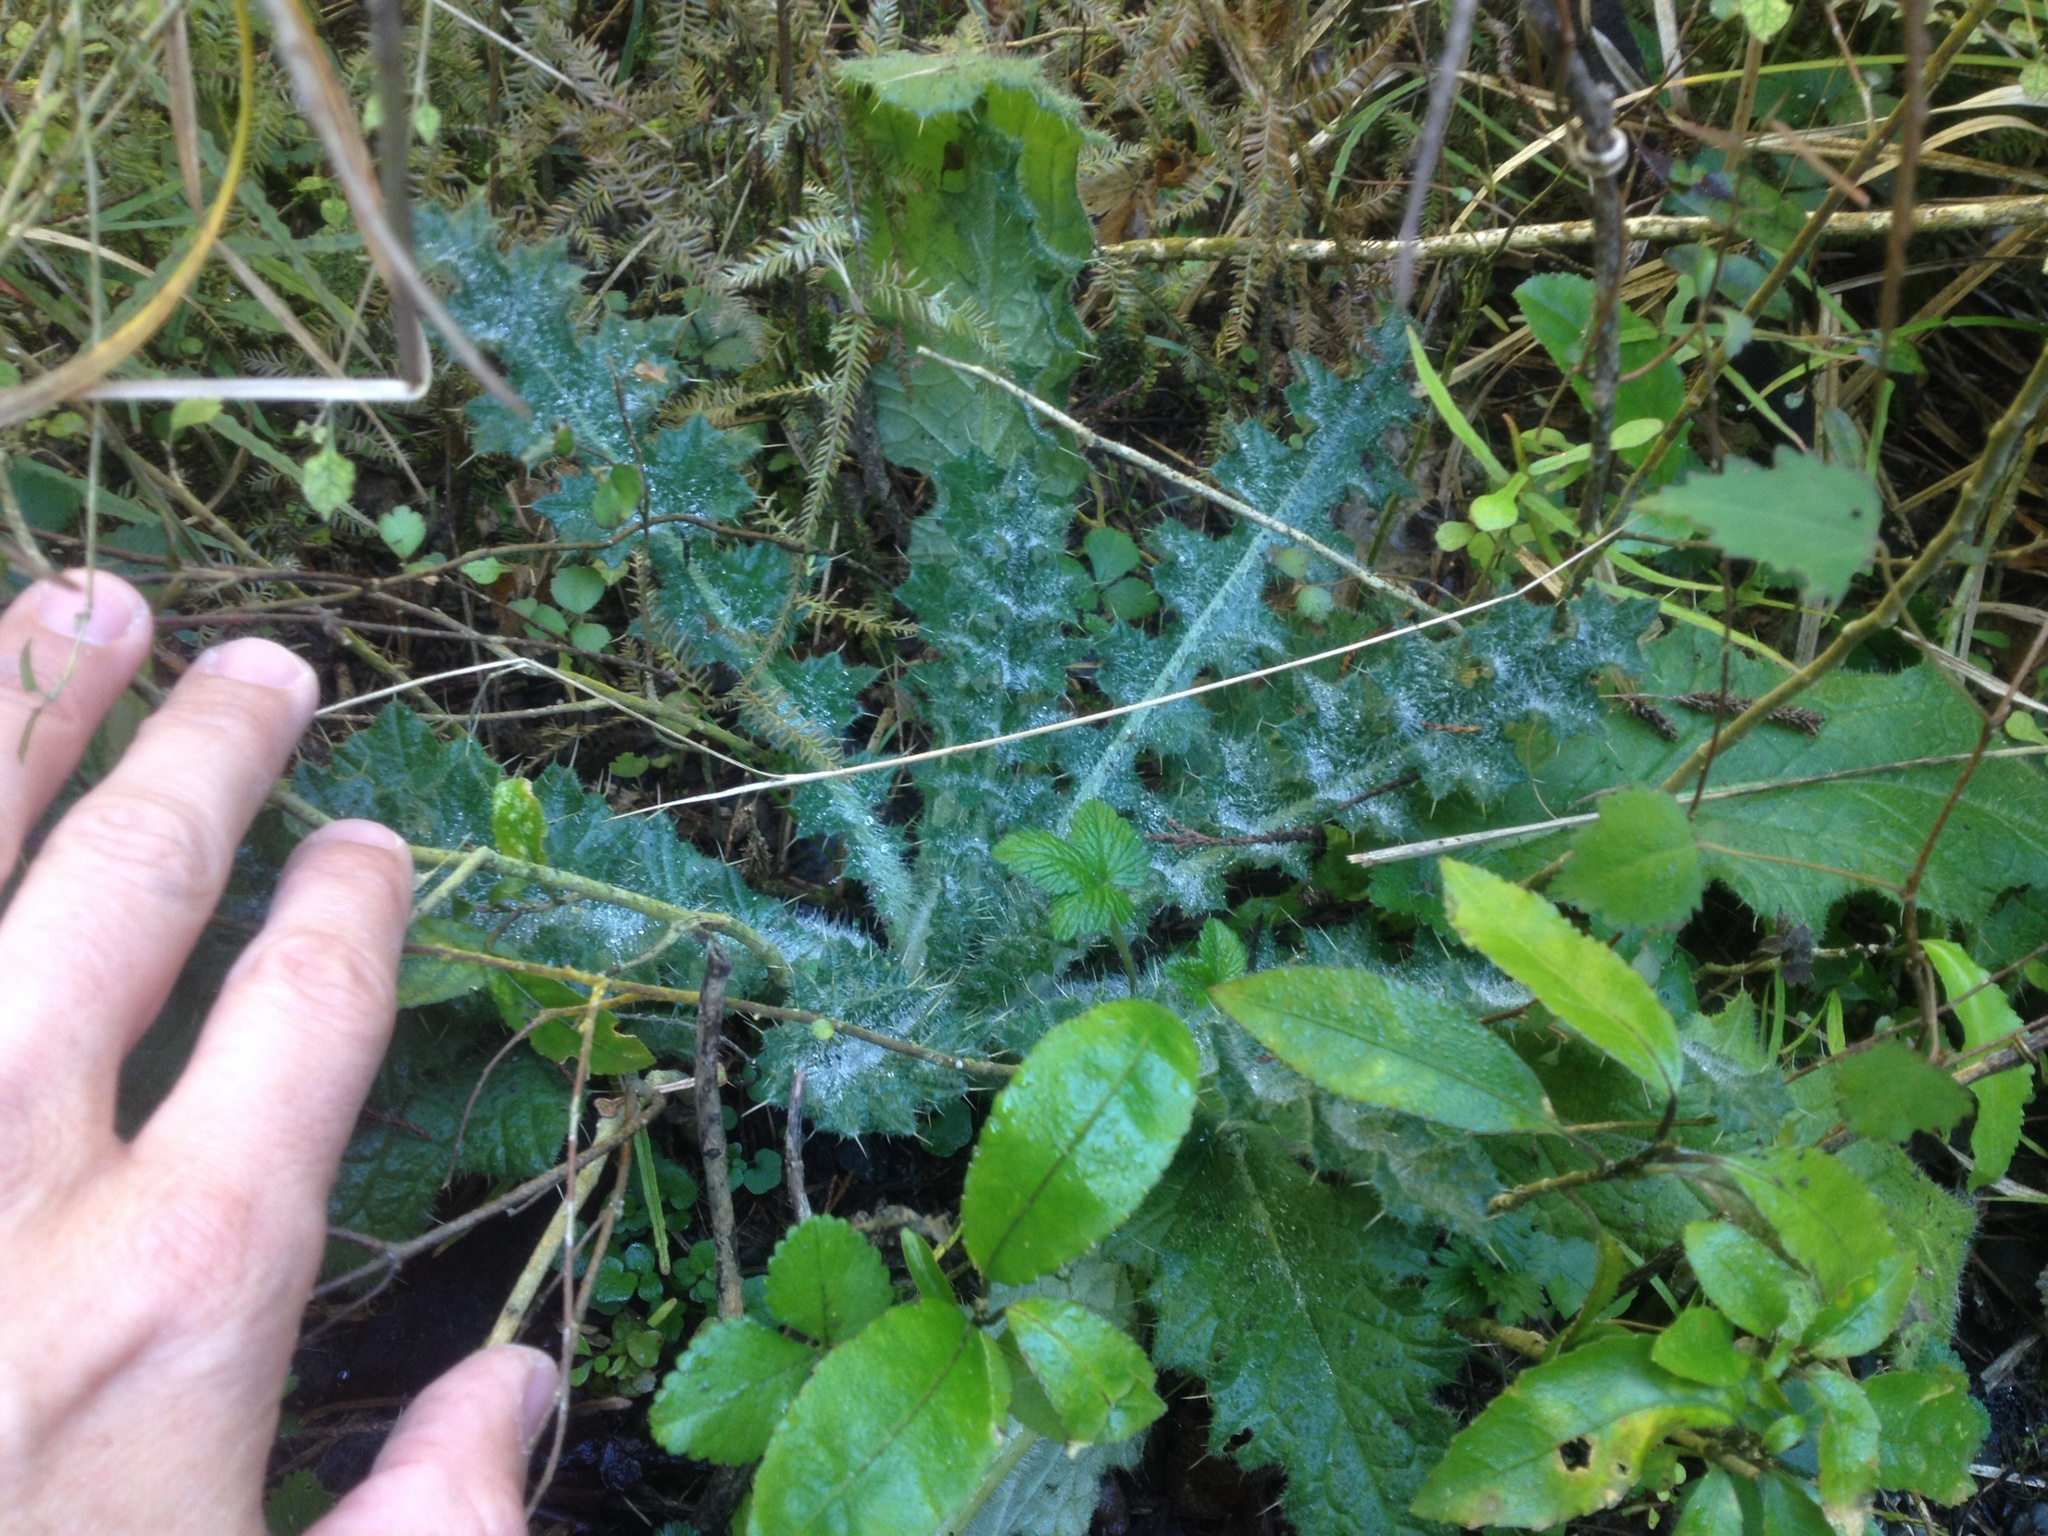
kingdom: Plantae
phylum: Tracheophyta
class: Magnoliopsida
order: Asterales
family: Asteraceae
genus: Cirsium
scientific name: Cirsium vulgare
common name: Bull thistle
